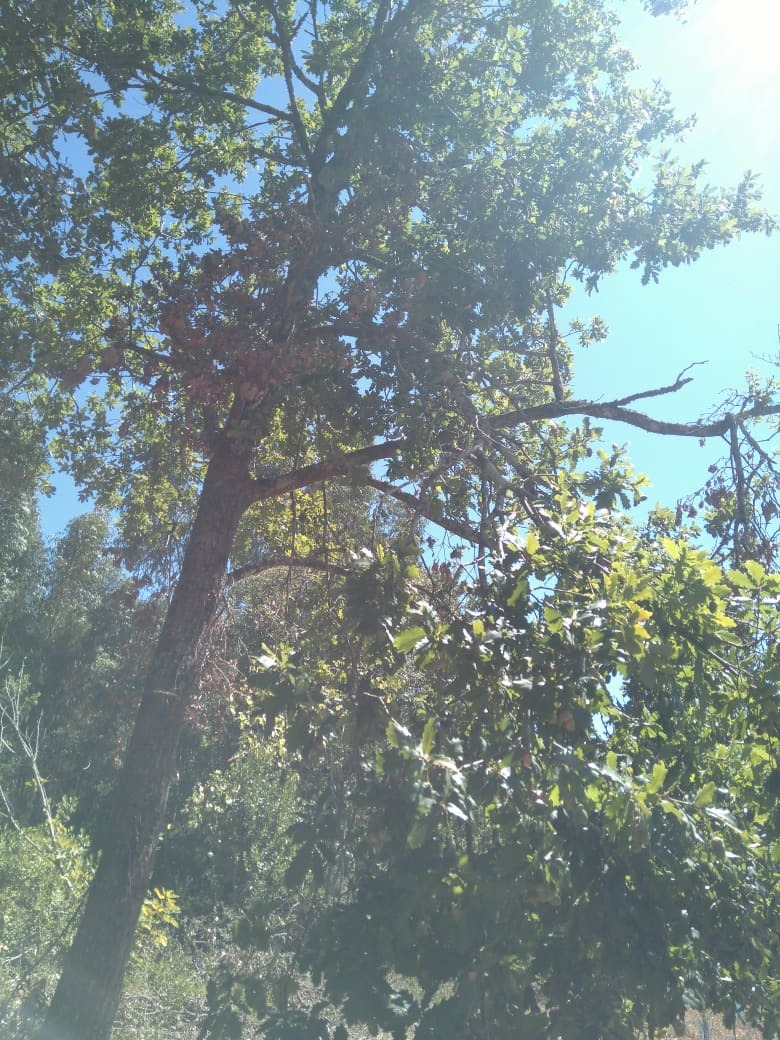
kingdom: Plantae
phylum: Tracheophyta
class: Magnoliopsida
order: Fagales
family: Fagaceae
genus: Quercus
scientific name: Quercus estremadurensis
